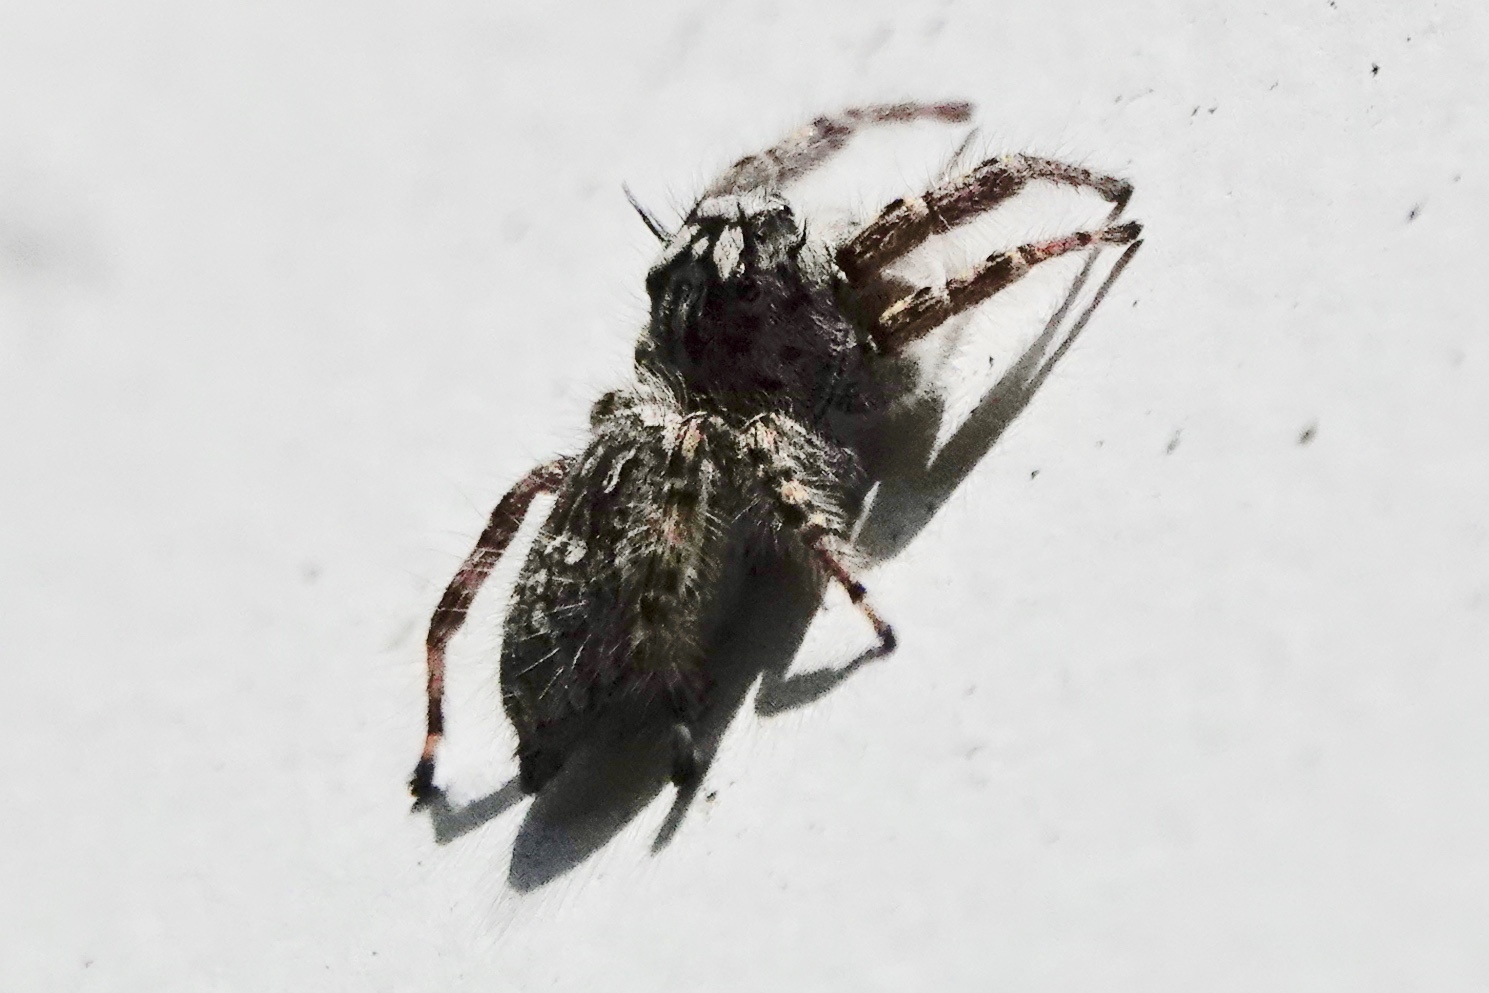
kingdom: Animalia
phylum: Arthropoda
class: Arachnida
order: Araneae
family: Salticidae
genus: Phidippus
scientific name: Phidippus mystaceus
